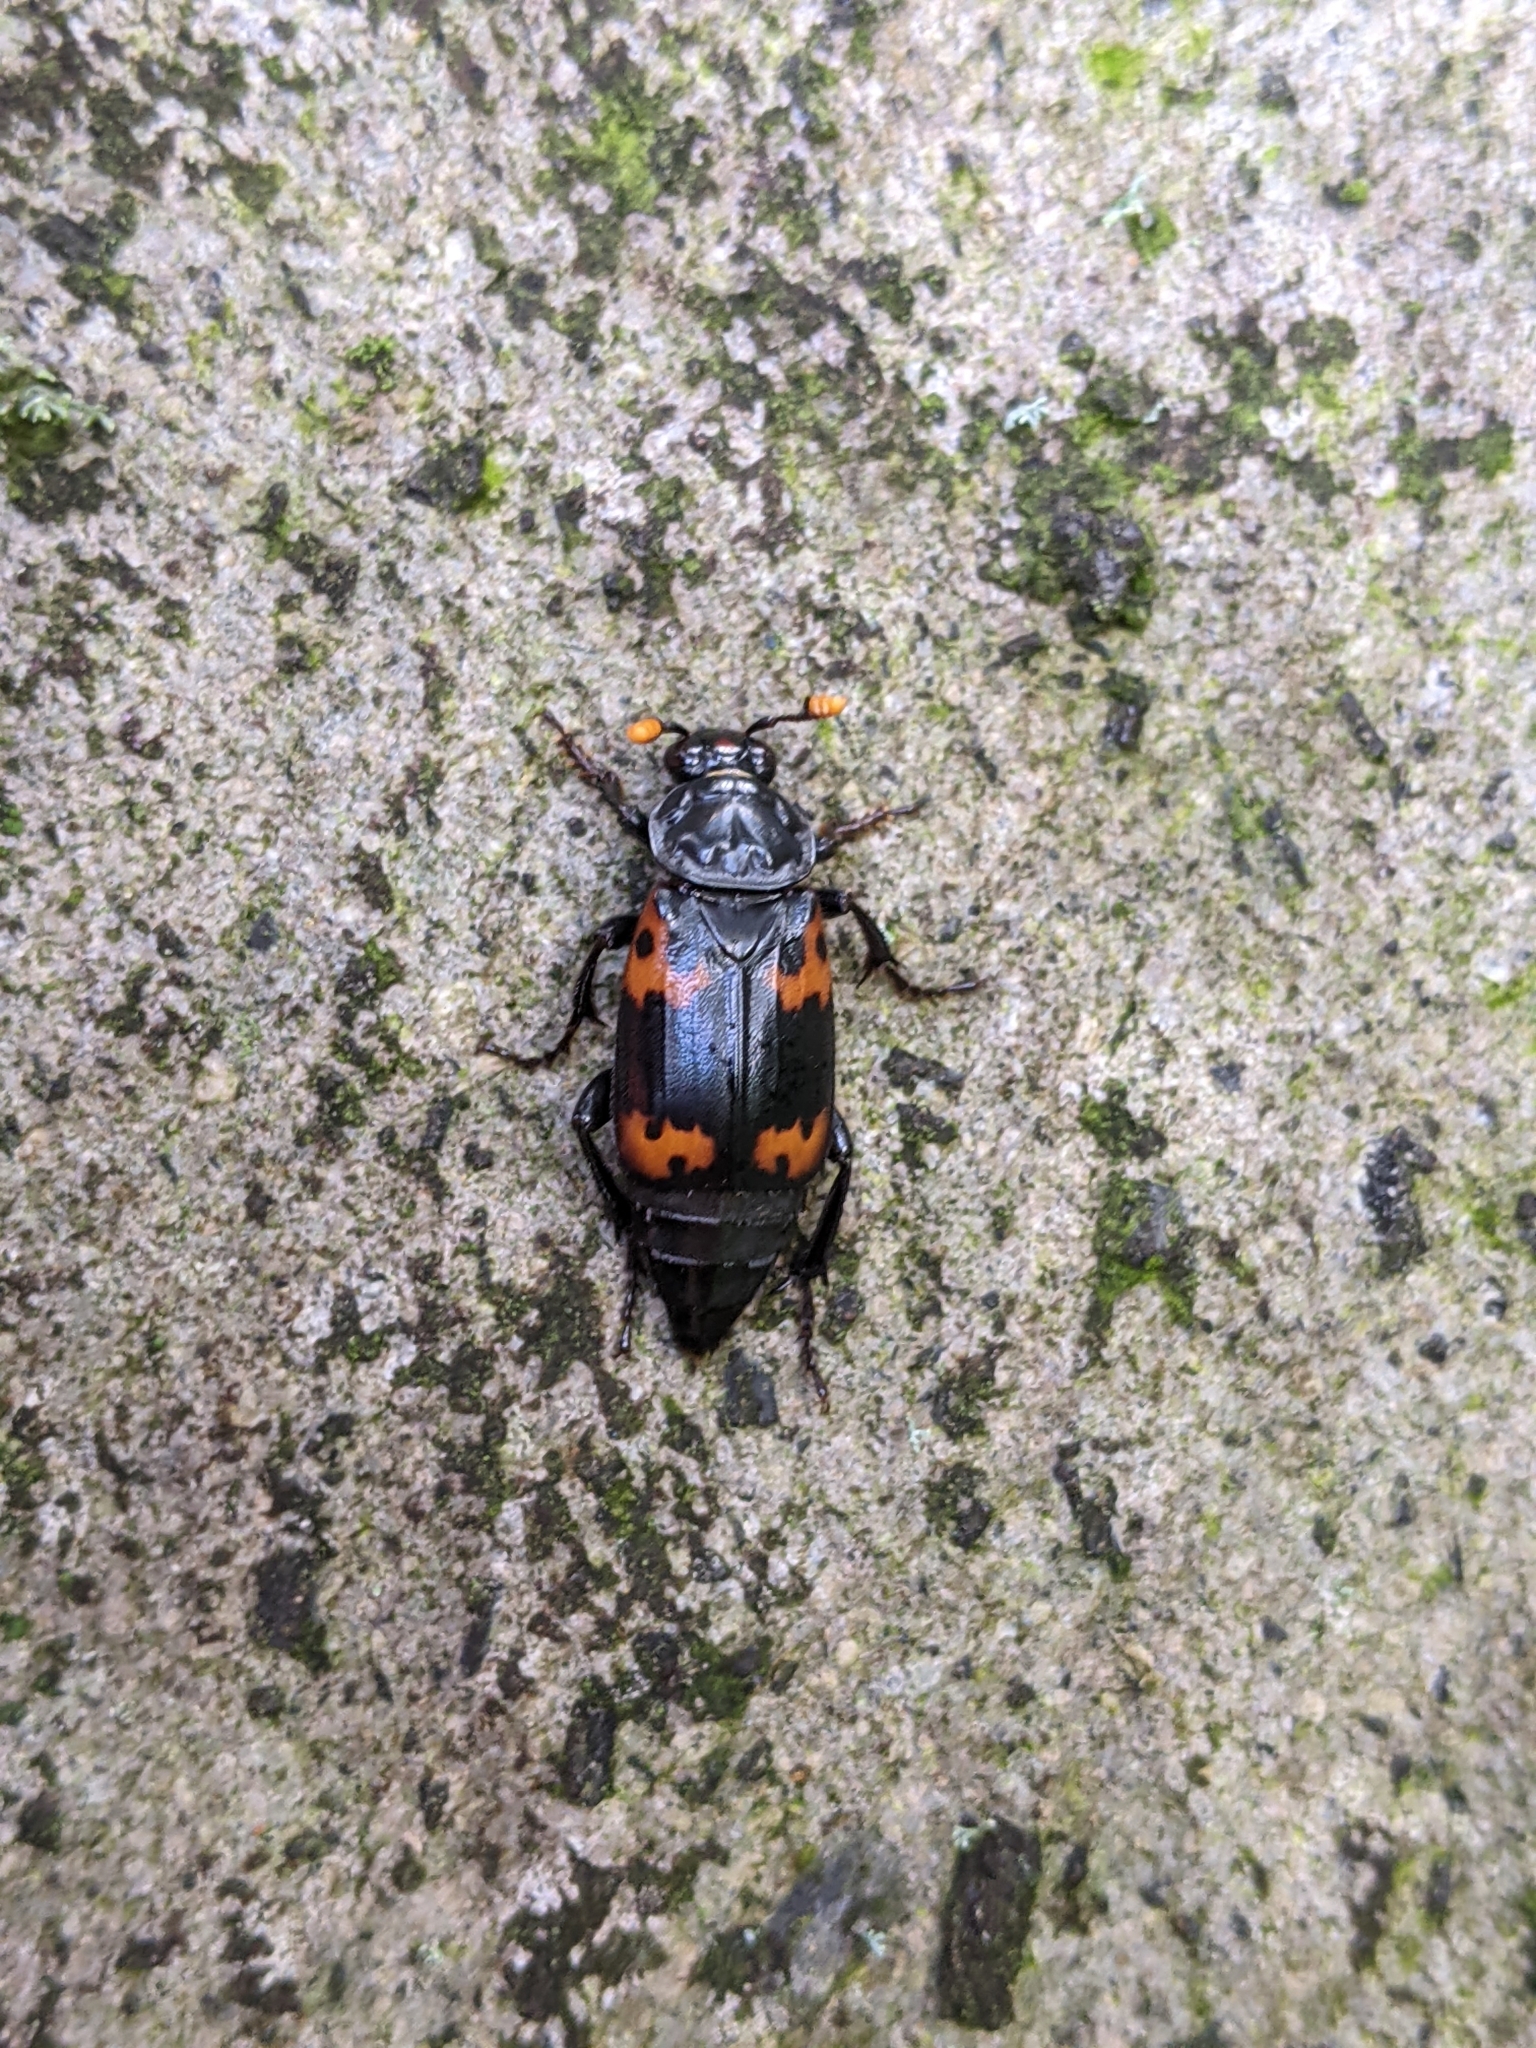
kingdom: Animalia
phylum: Arthropoda
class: Insecta
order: Coleoptera
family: Staphylinidae
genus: Nicrophorus
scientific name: Nicrophorus nepalensis
